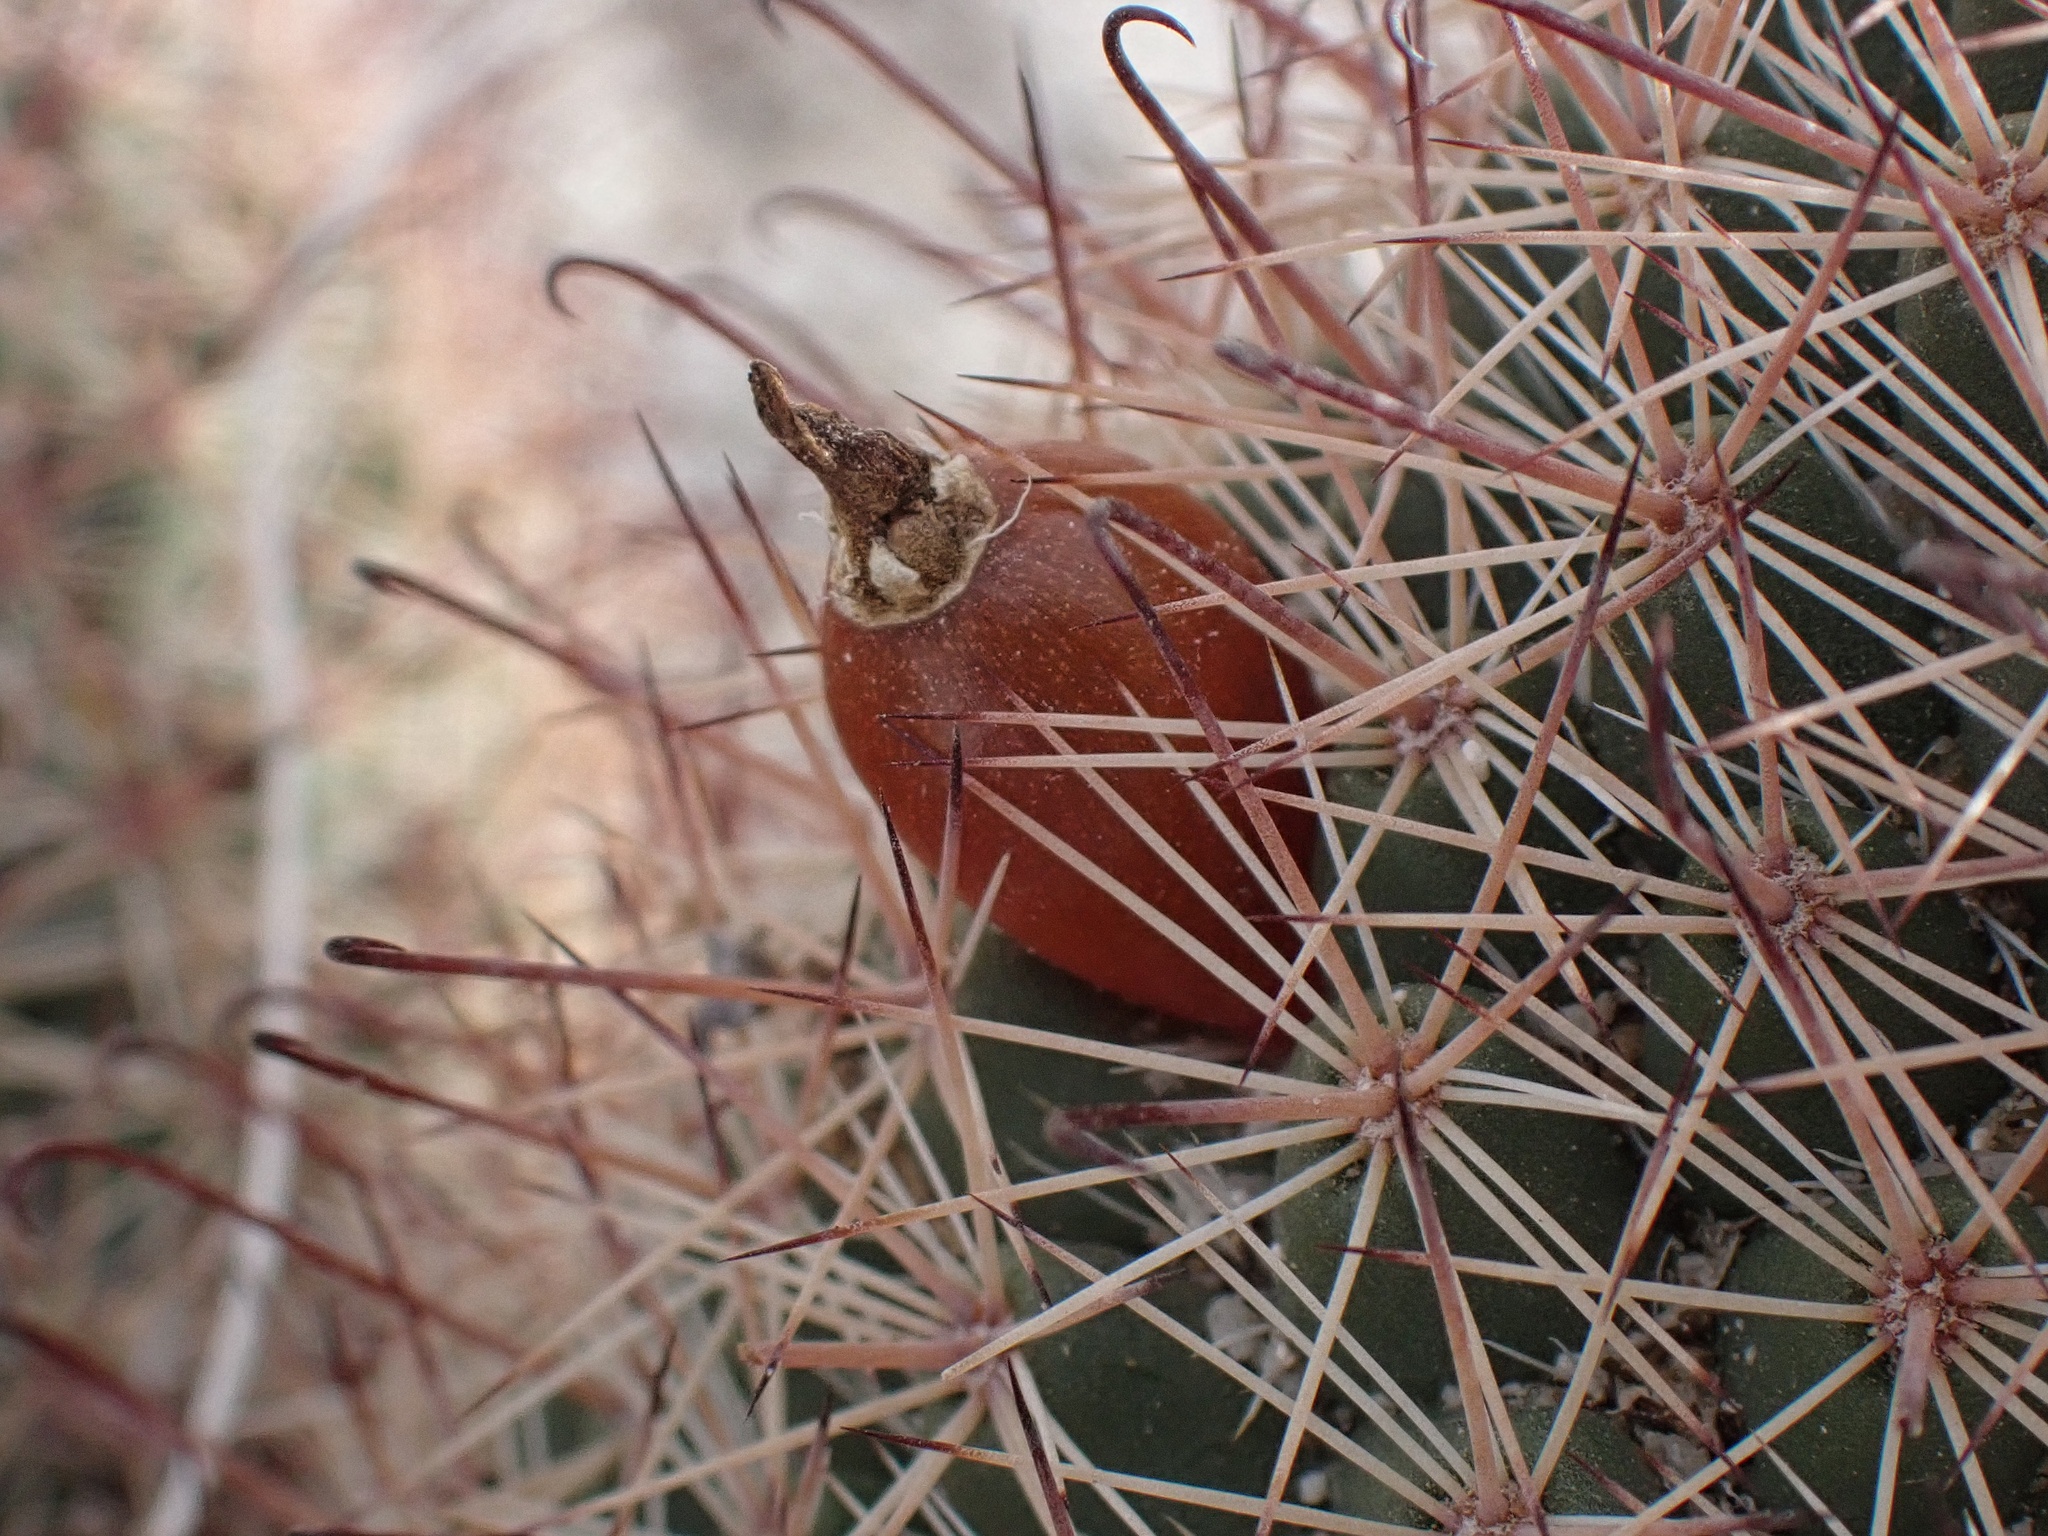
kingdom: Plantae
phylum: Tracheophyta
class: Magnoliopsida
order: Caryophyllales
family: Cactaceae
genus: Cochemiea
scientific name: Cochemiea dioica
